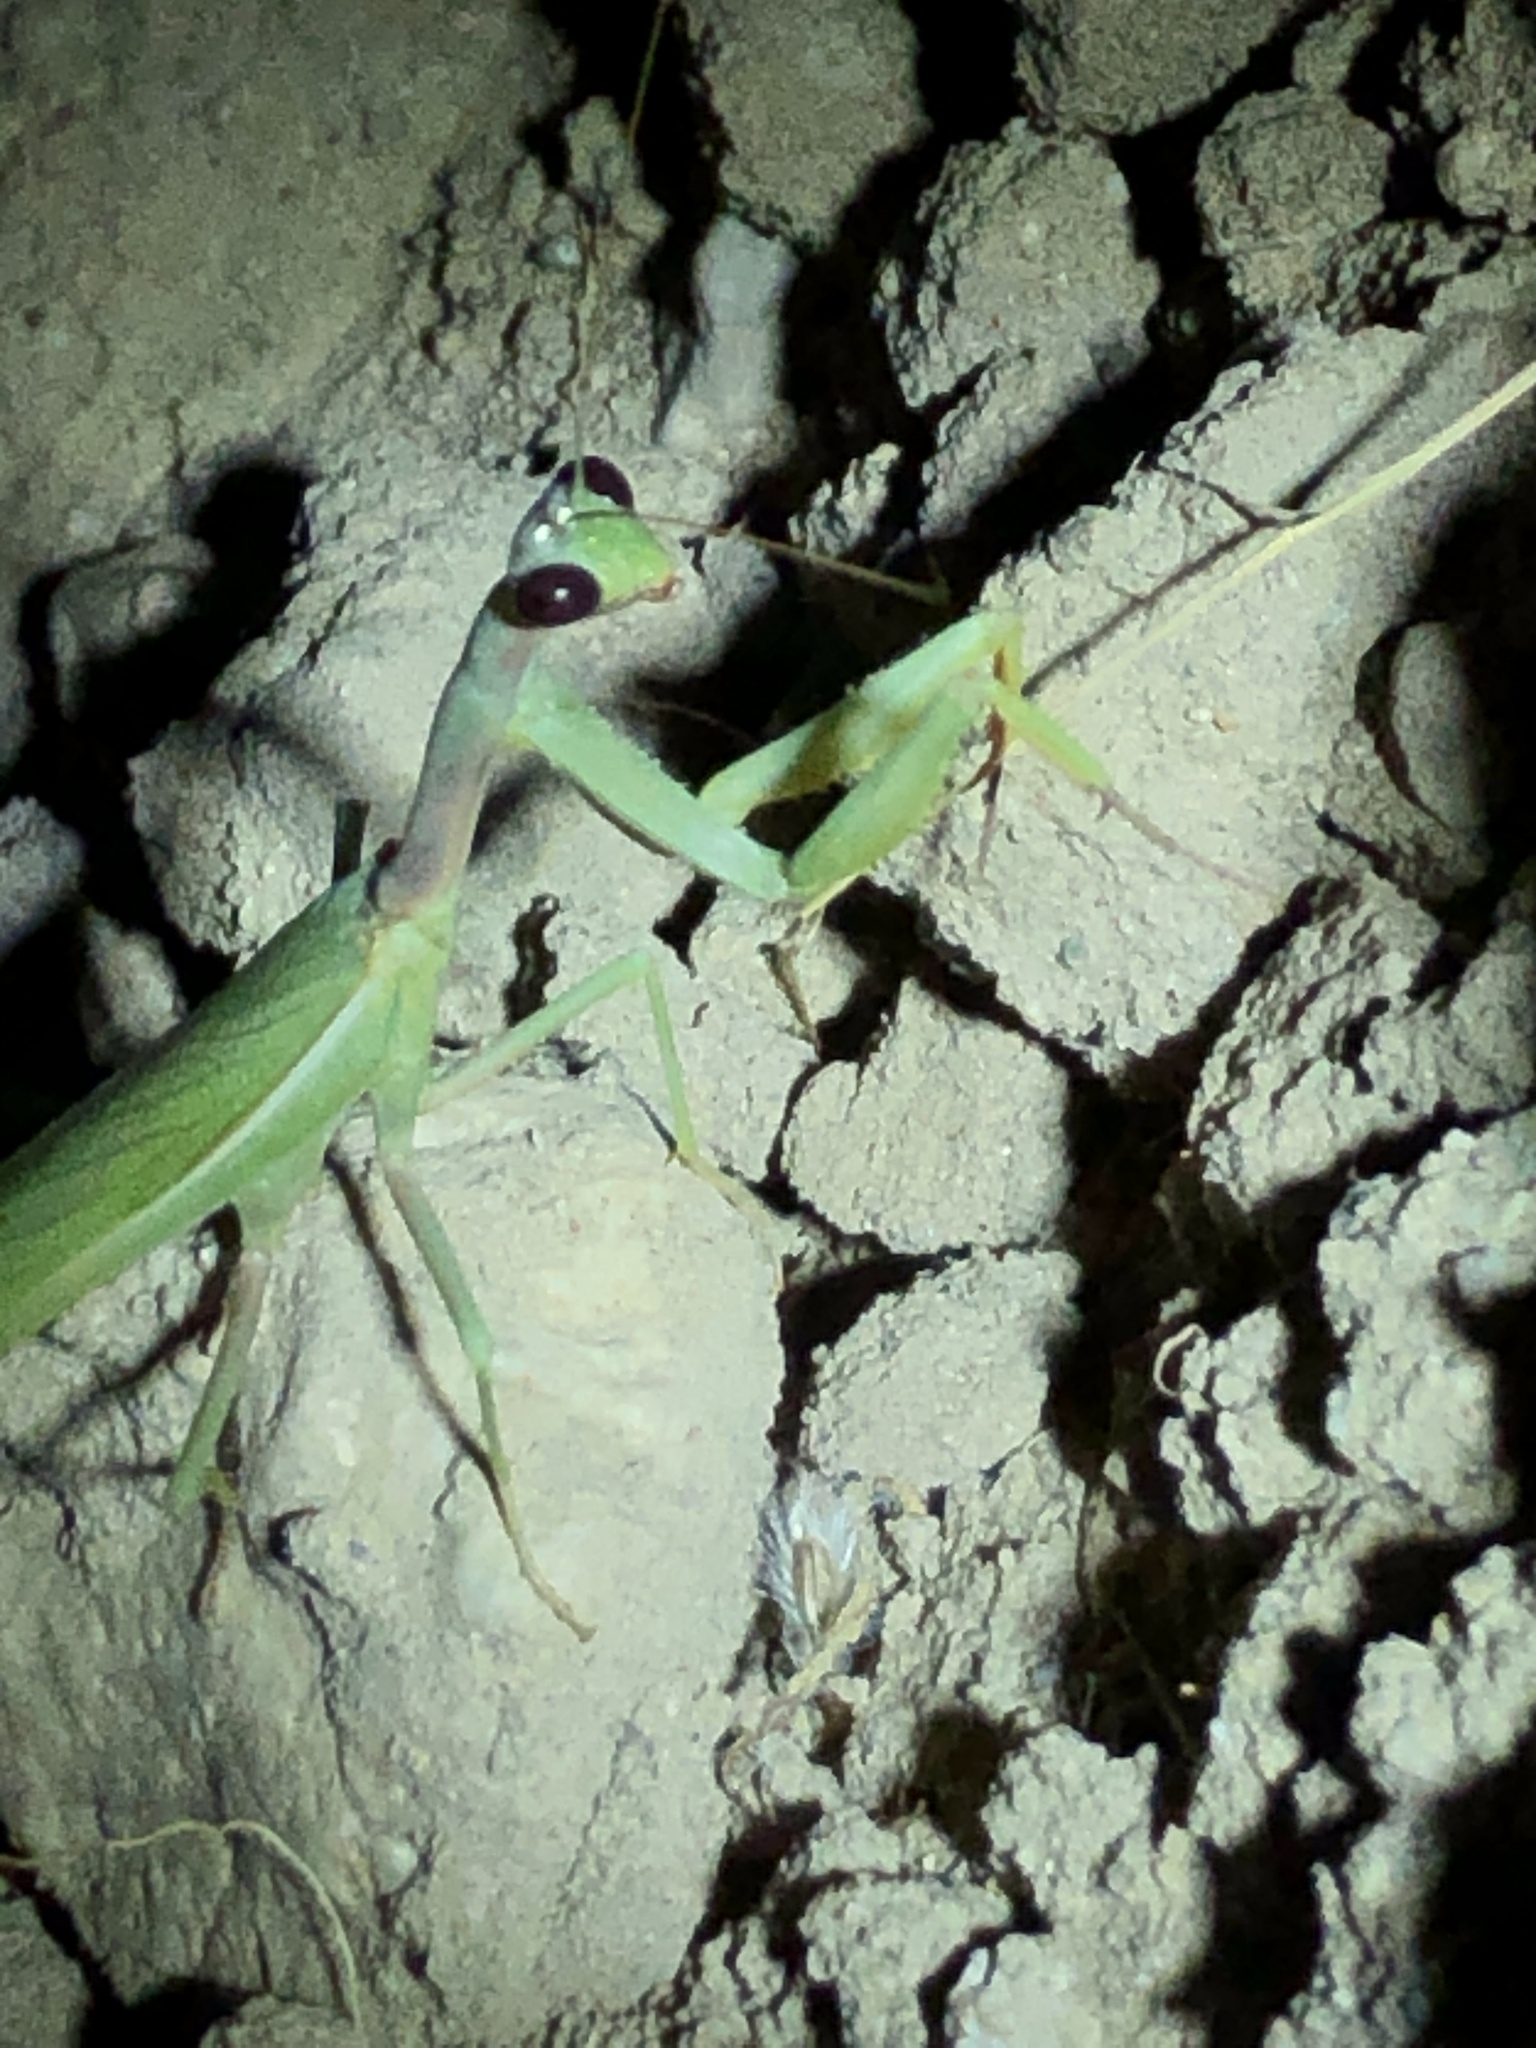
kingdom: Animalia
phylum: Arthropoda
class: Insecta
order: Mantodea
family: Eremiaphilidae
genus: Iris
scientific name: Iris oratoria
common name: Mediterranean mantis
